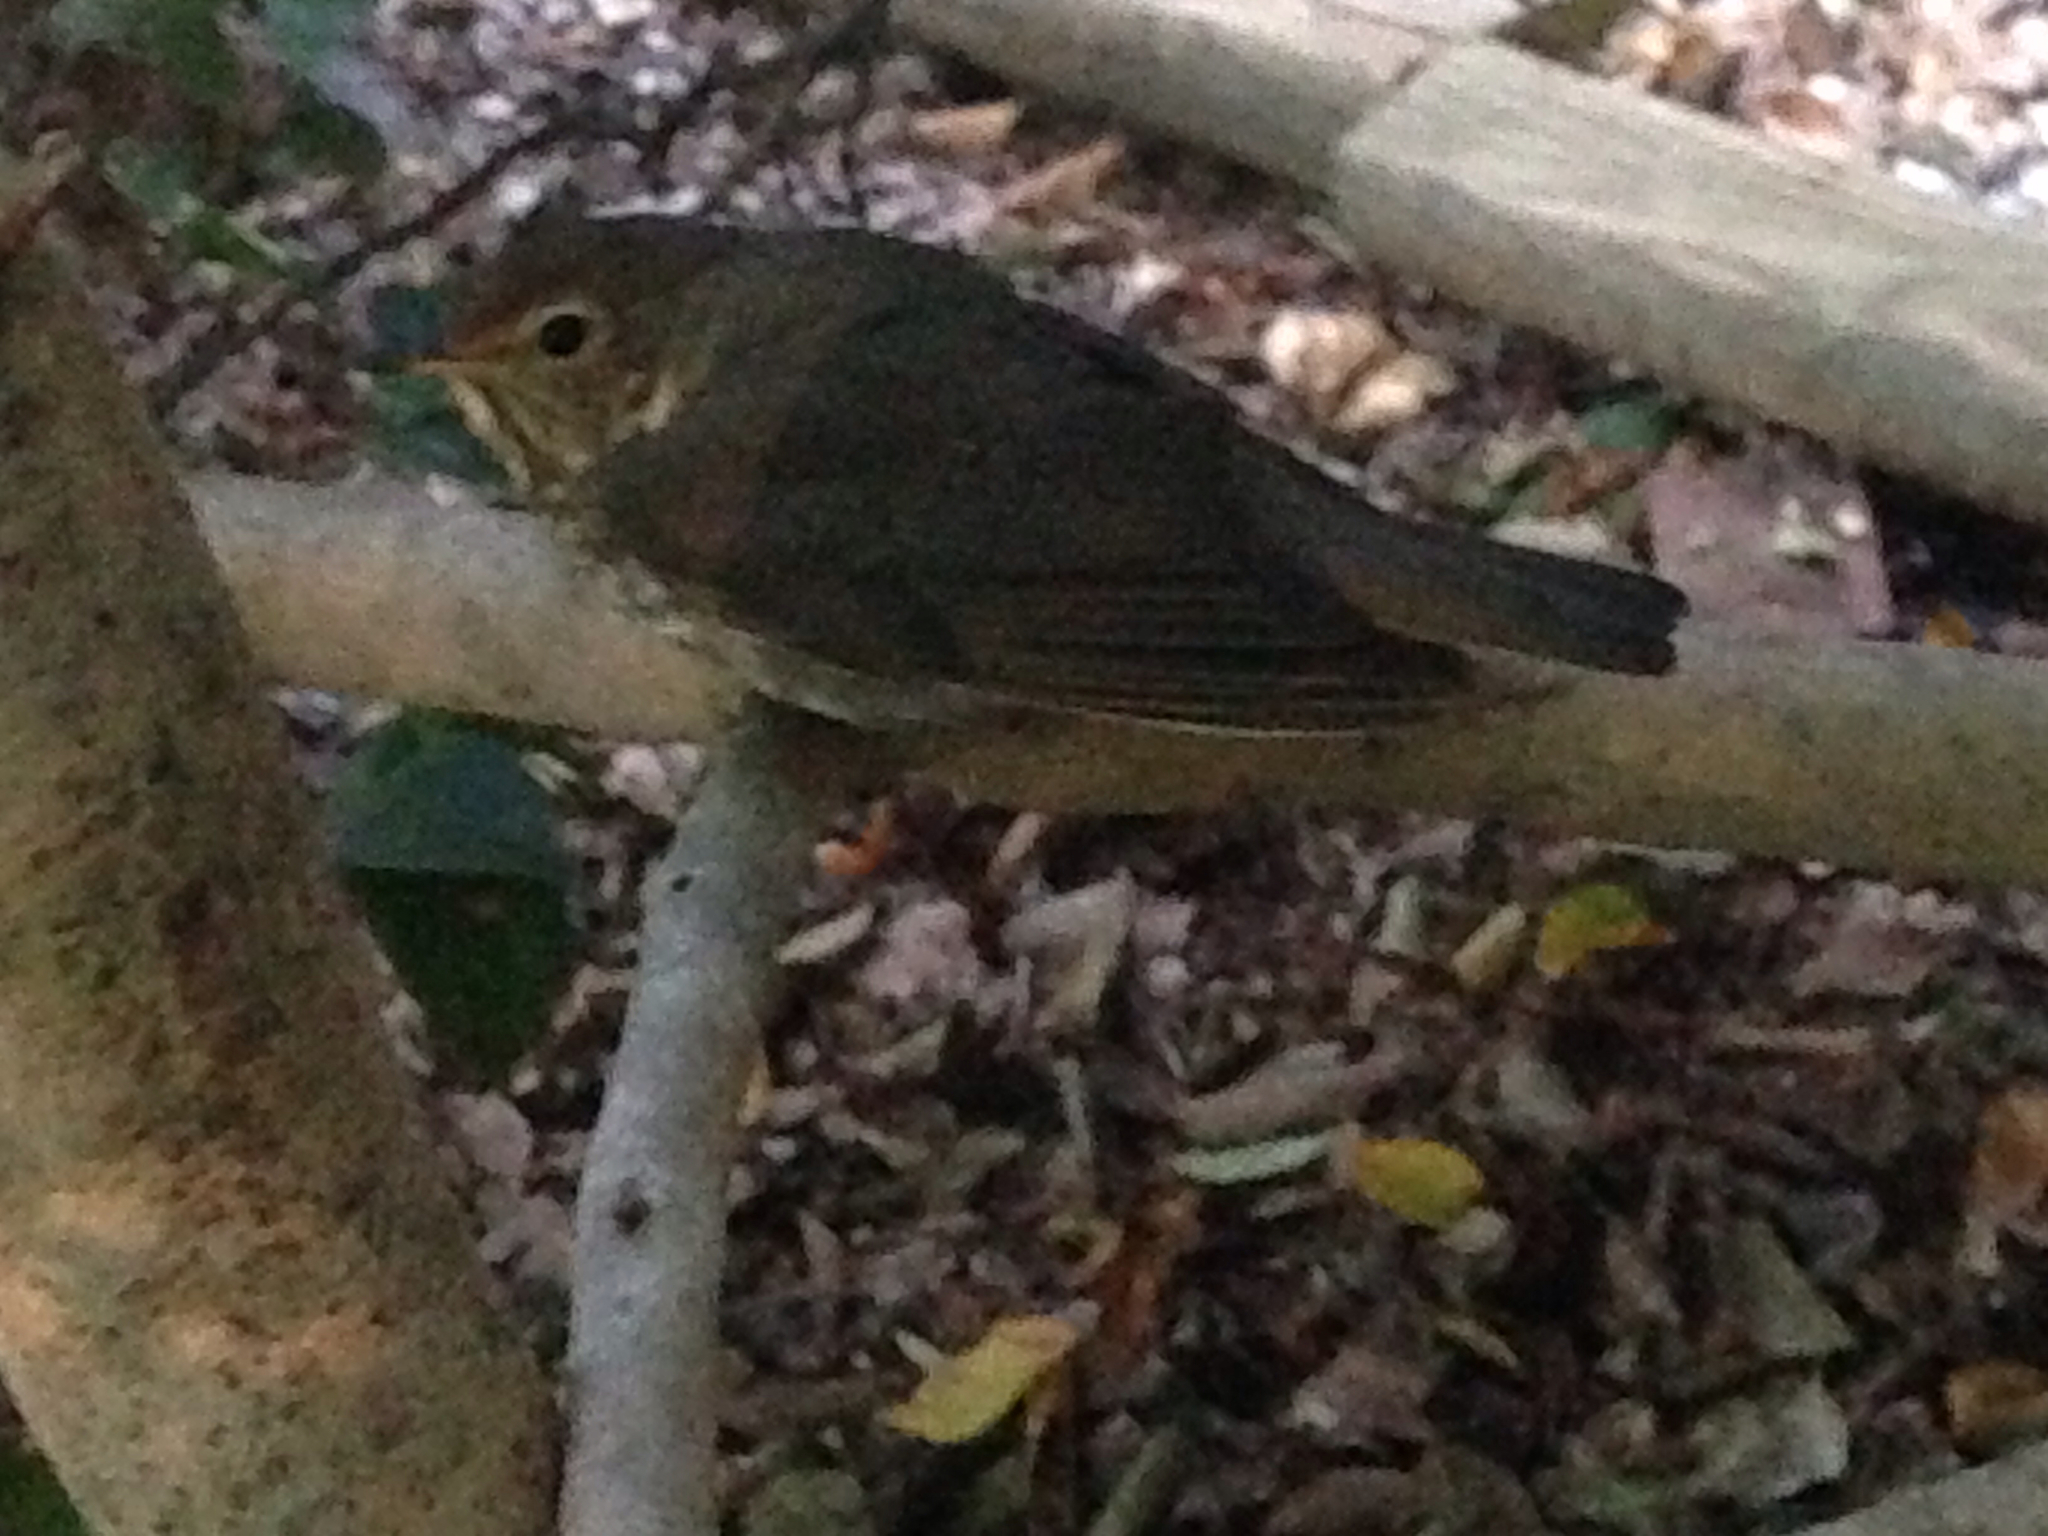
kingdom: Animalia
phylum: Chordata
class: Aves
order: Passeriformes
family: Turdidae
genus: Catharus
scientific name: Catharus ustulatus
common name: Swainson's thrush
